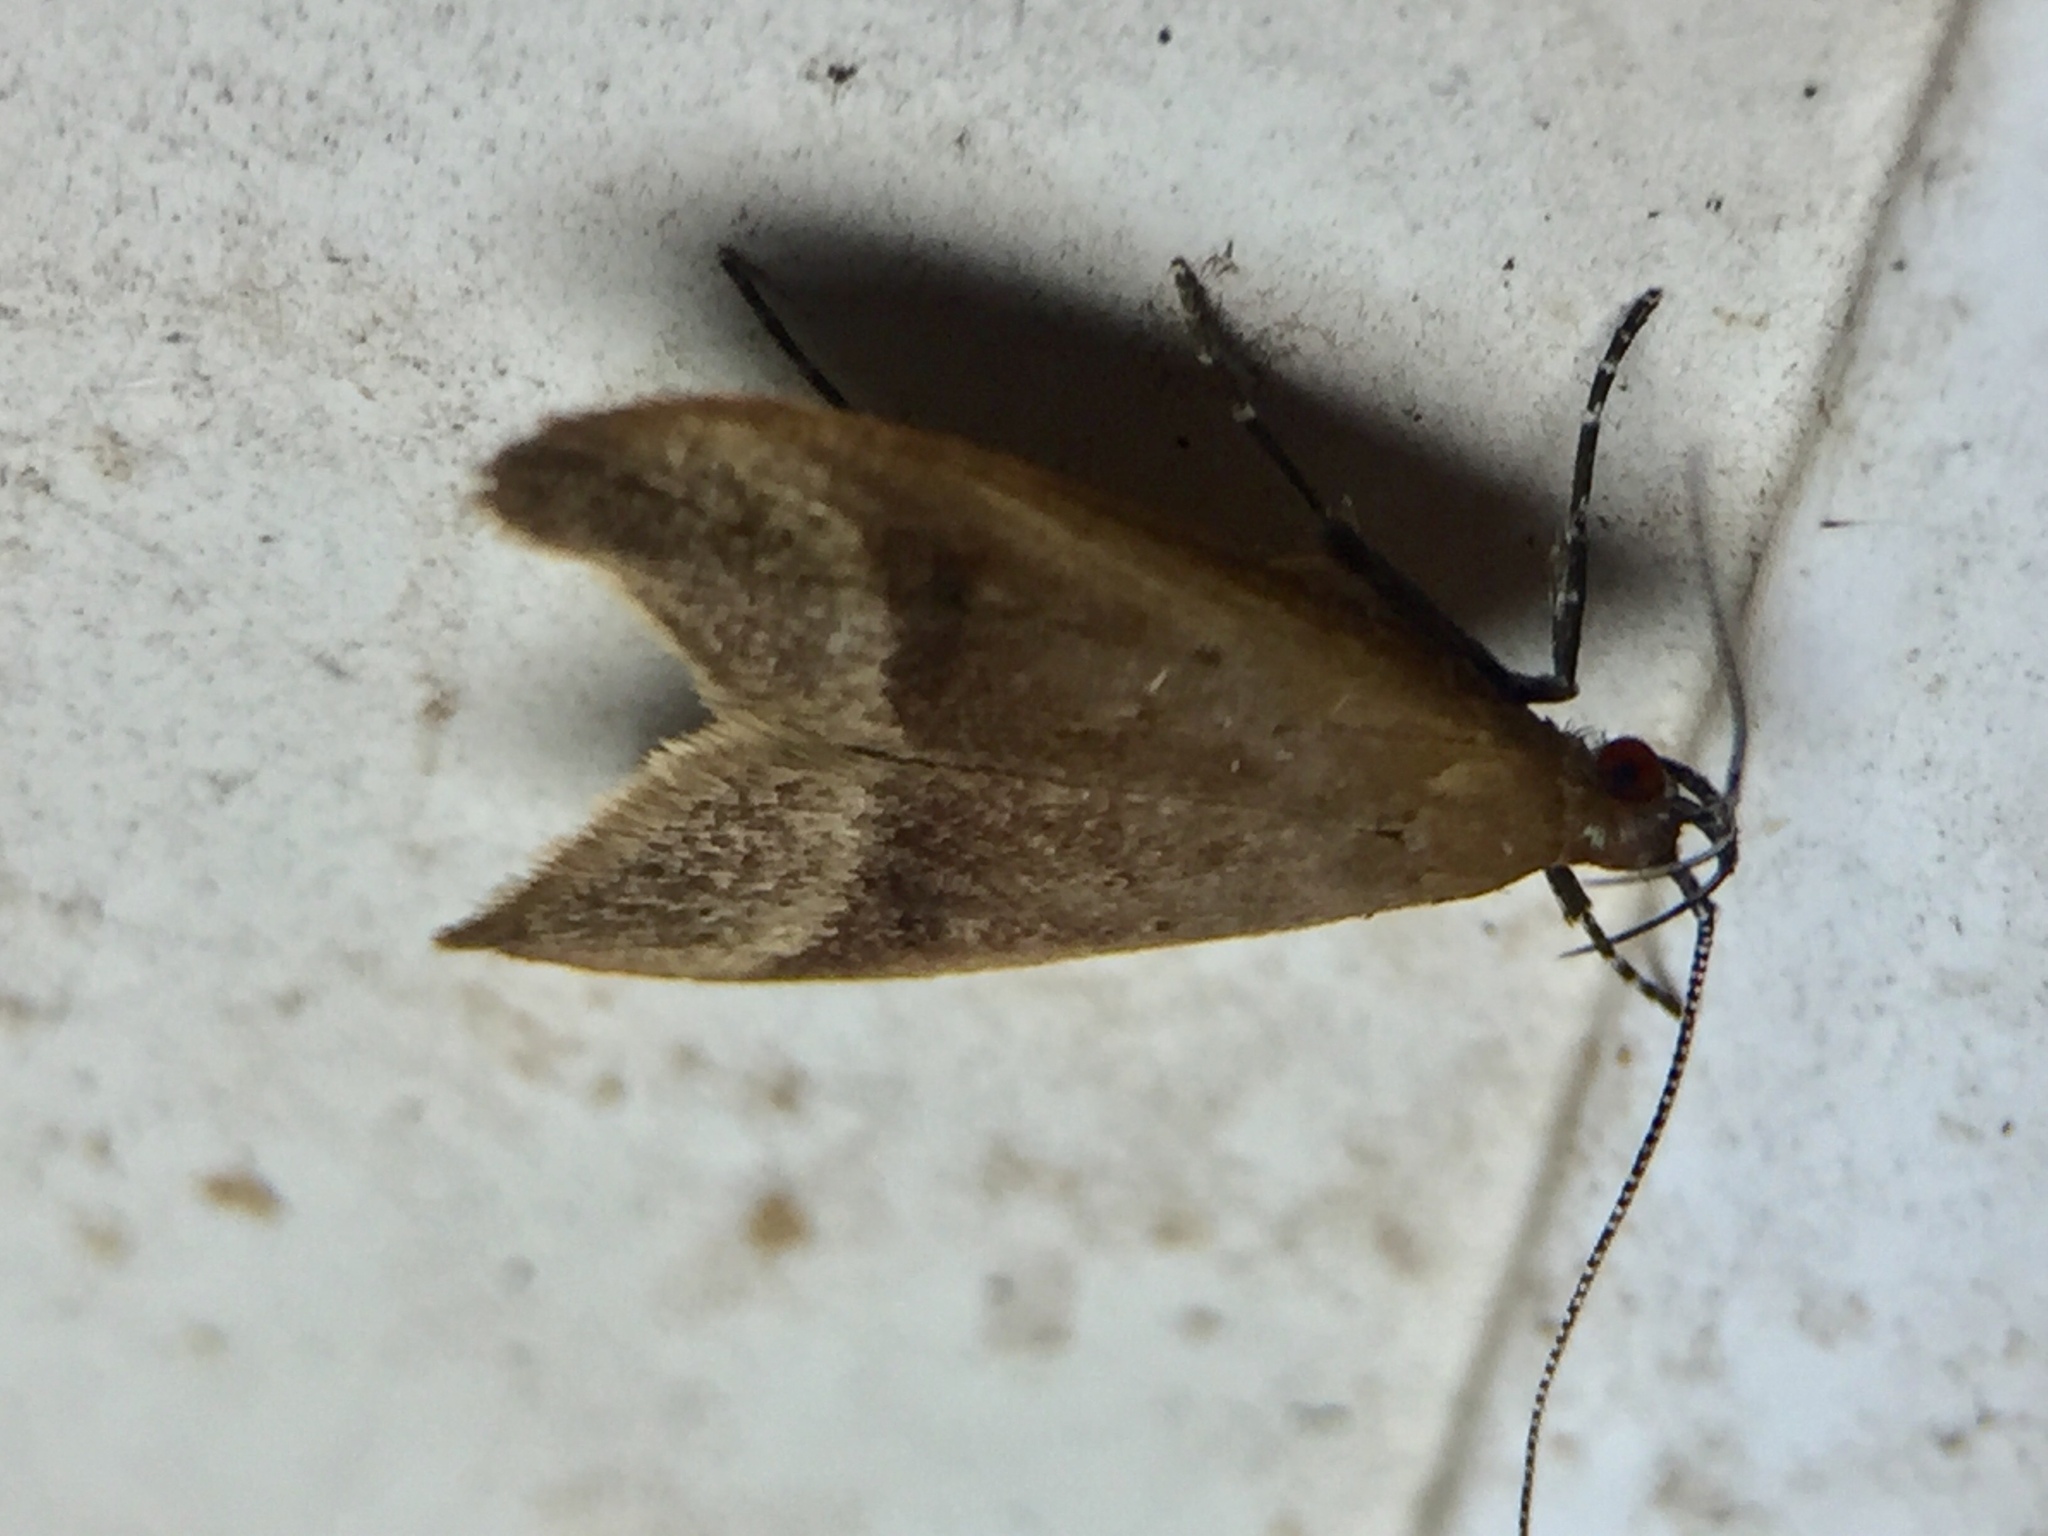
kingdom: Animalia
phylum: Arthropoda
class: Insecta
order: Lepidoptera
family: Oecophoridae
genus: Gymnobathra
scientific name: Gymnobathra hyetodes
